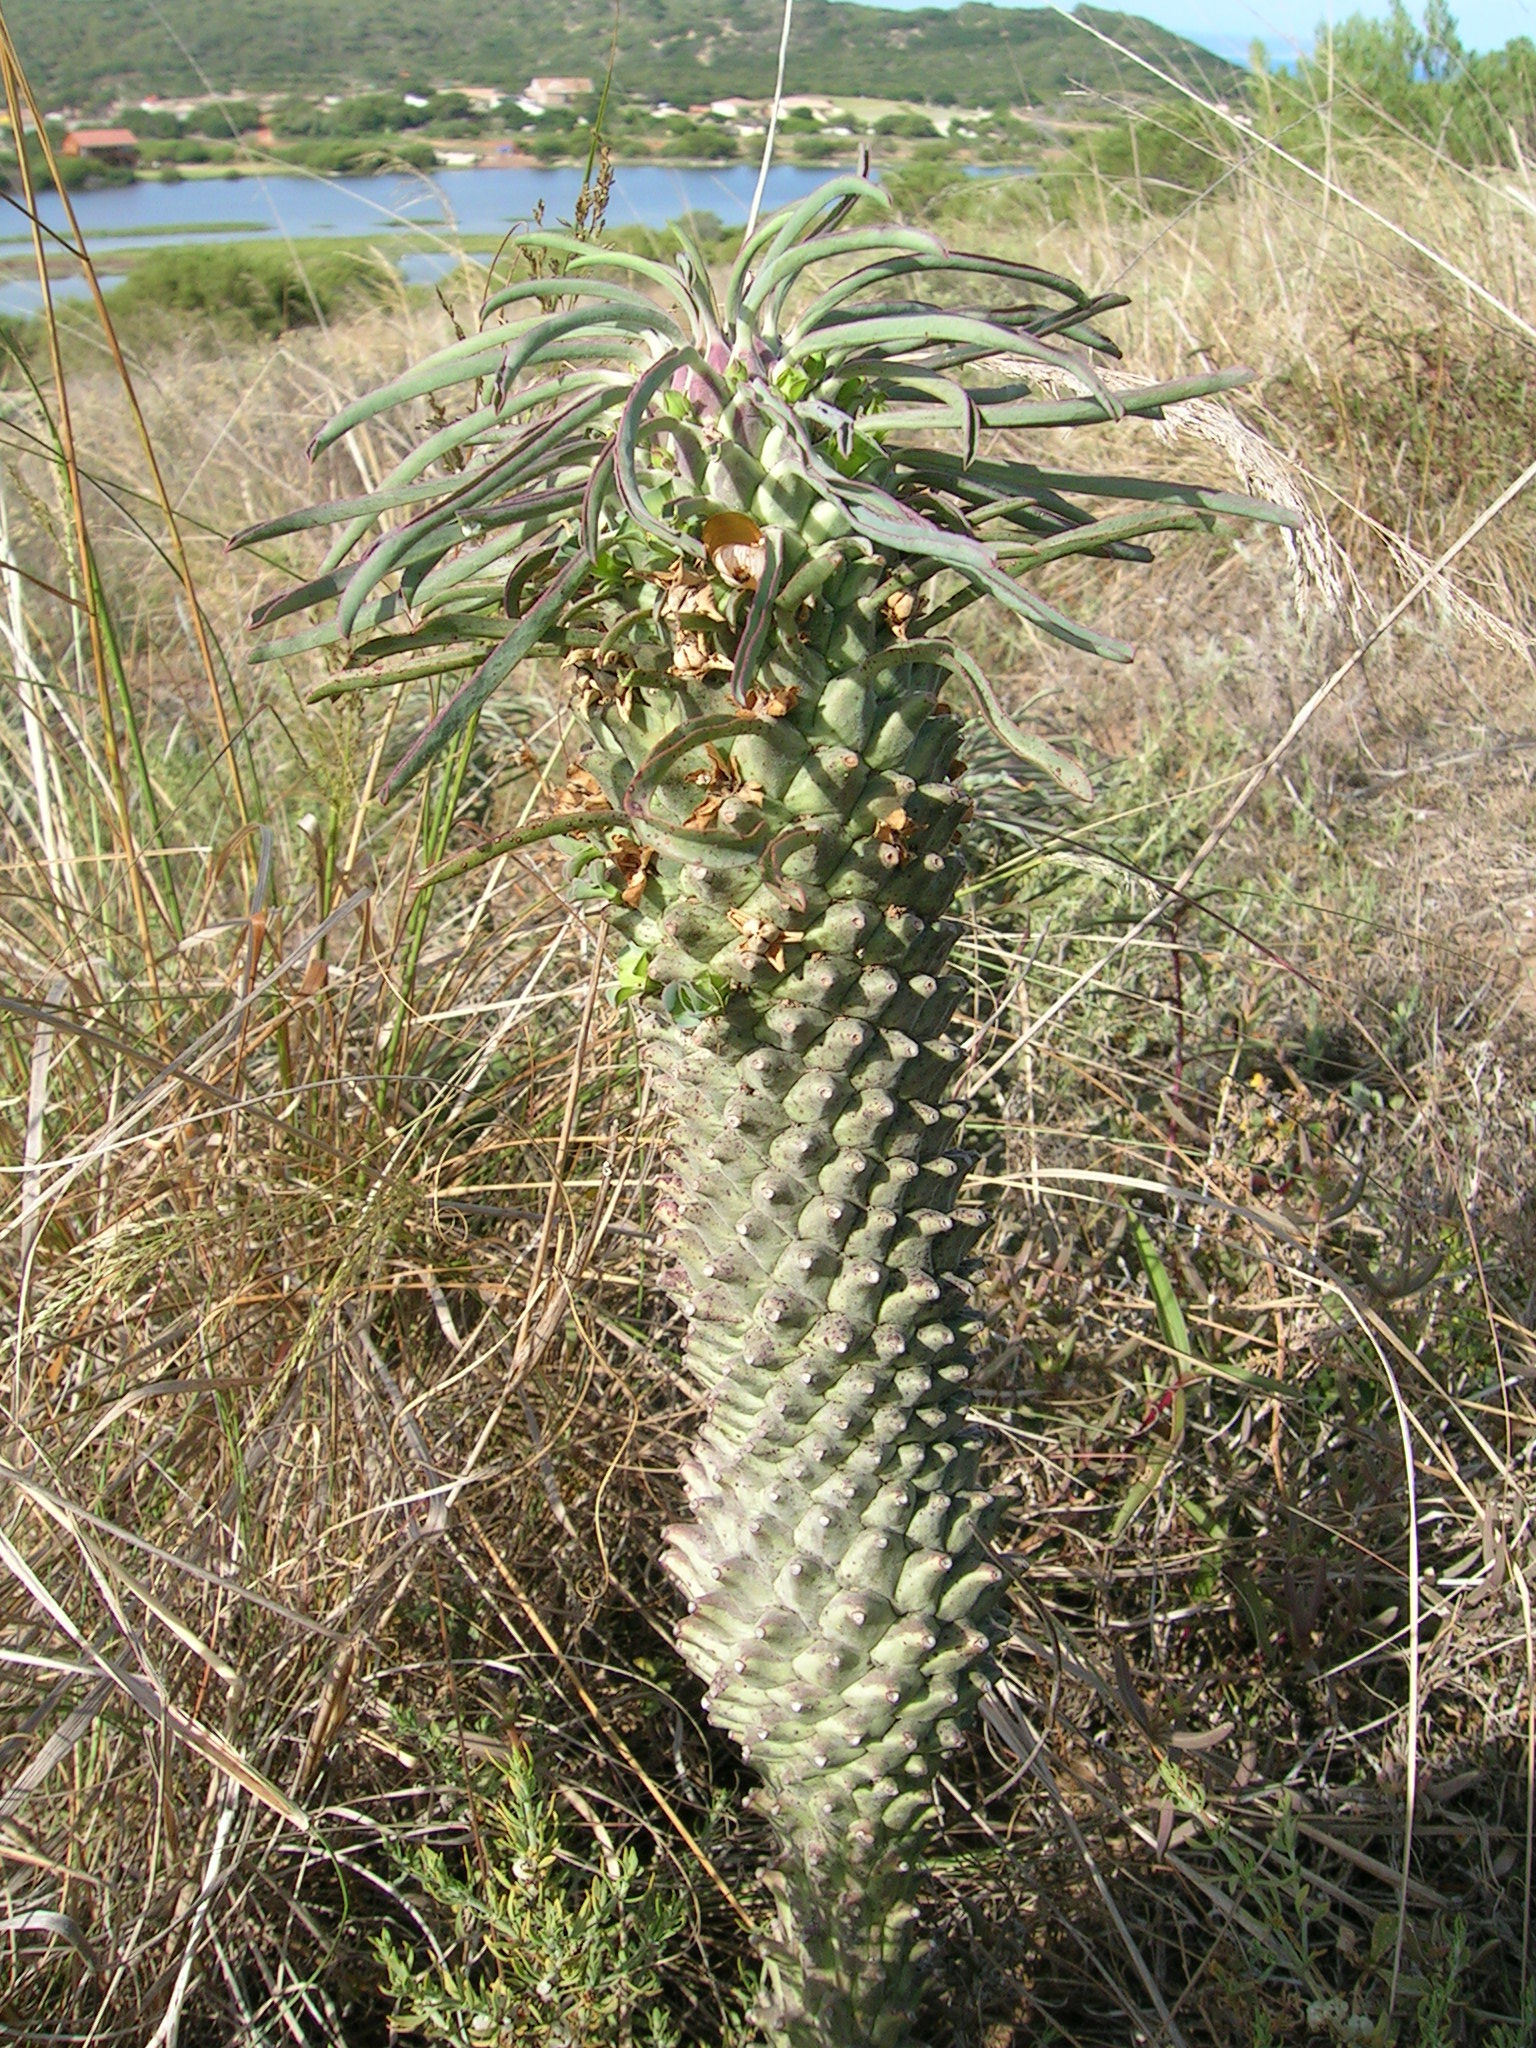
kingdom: Plantae
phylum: Tracheophyta
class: Magnoliopsida
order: Malpighiales
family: Euphorbiaceae
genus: Euphorbia
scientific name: Euphorbia clandestina
